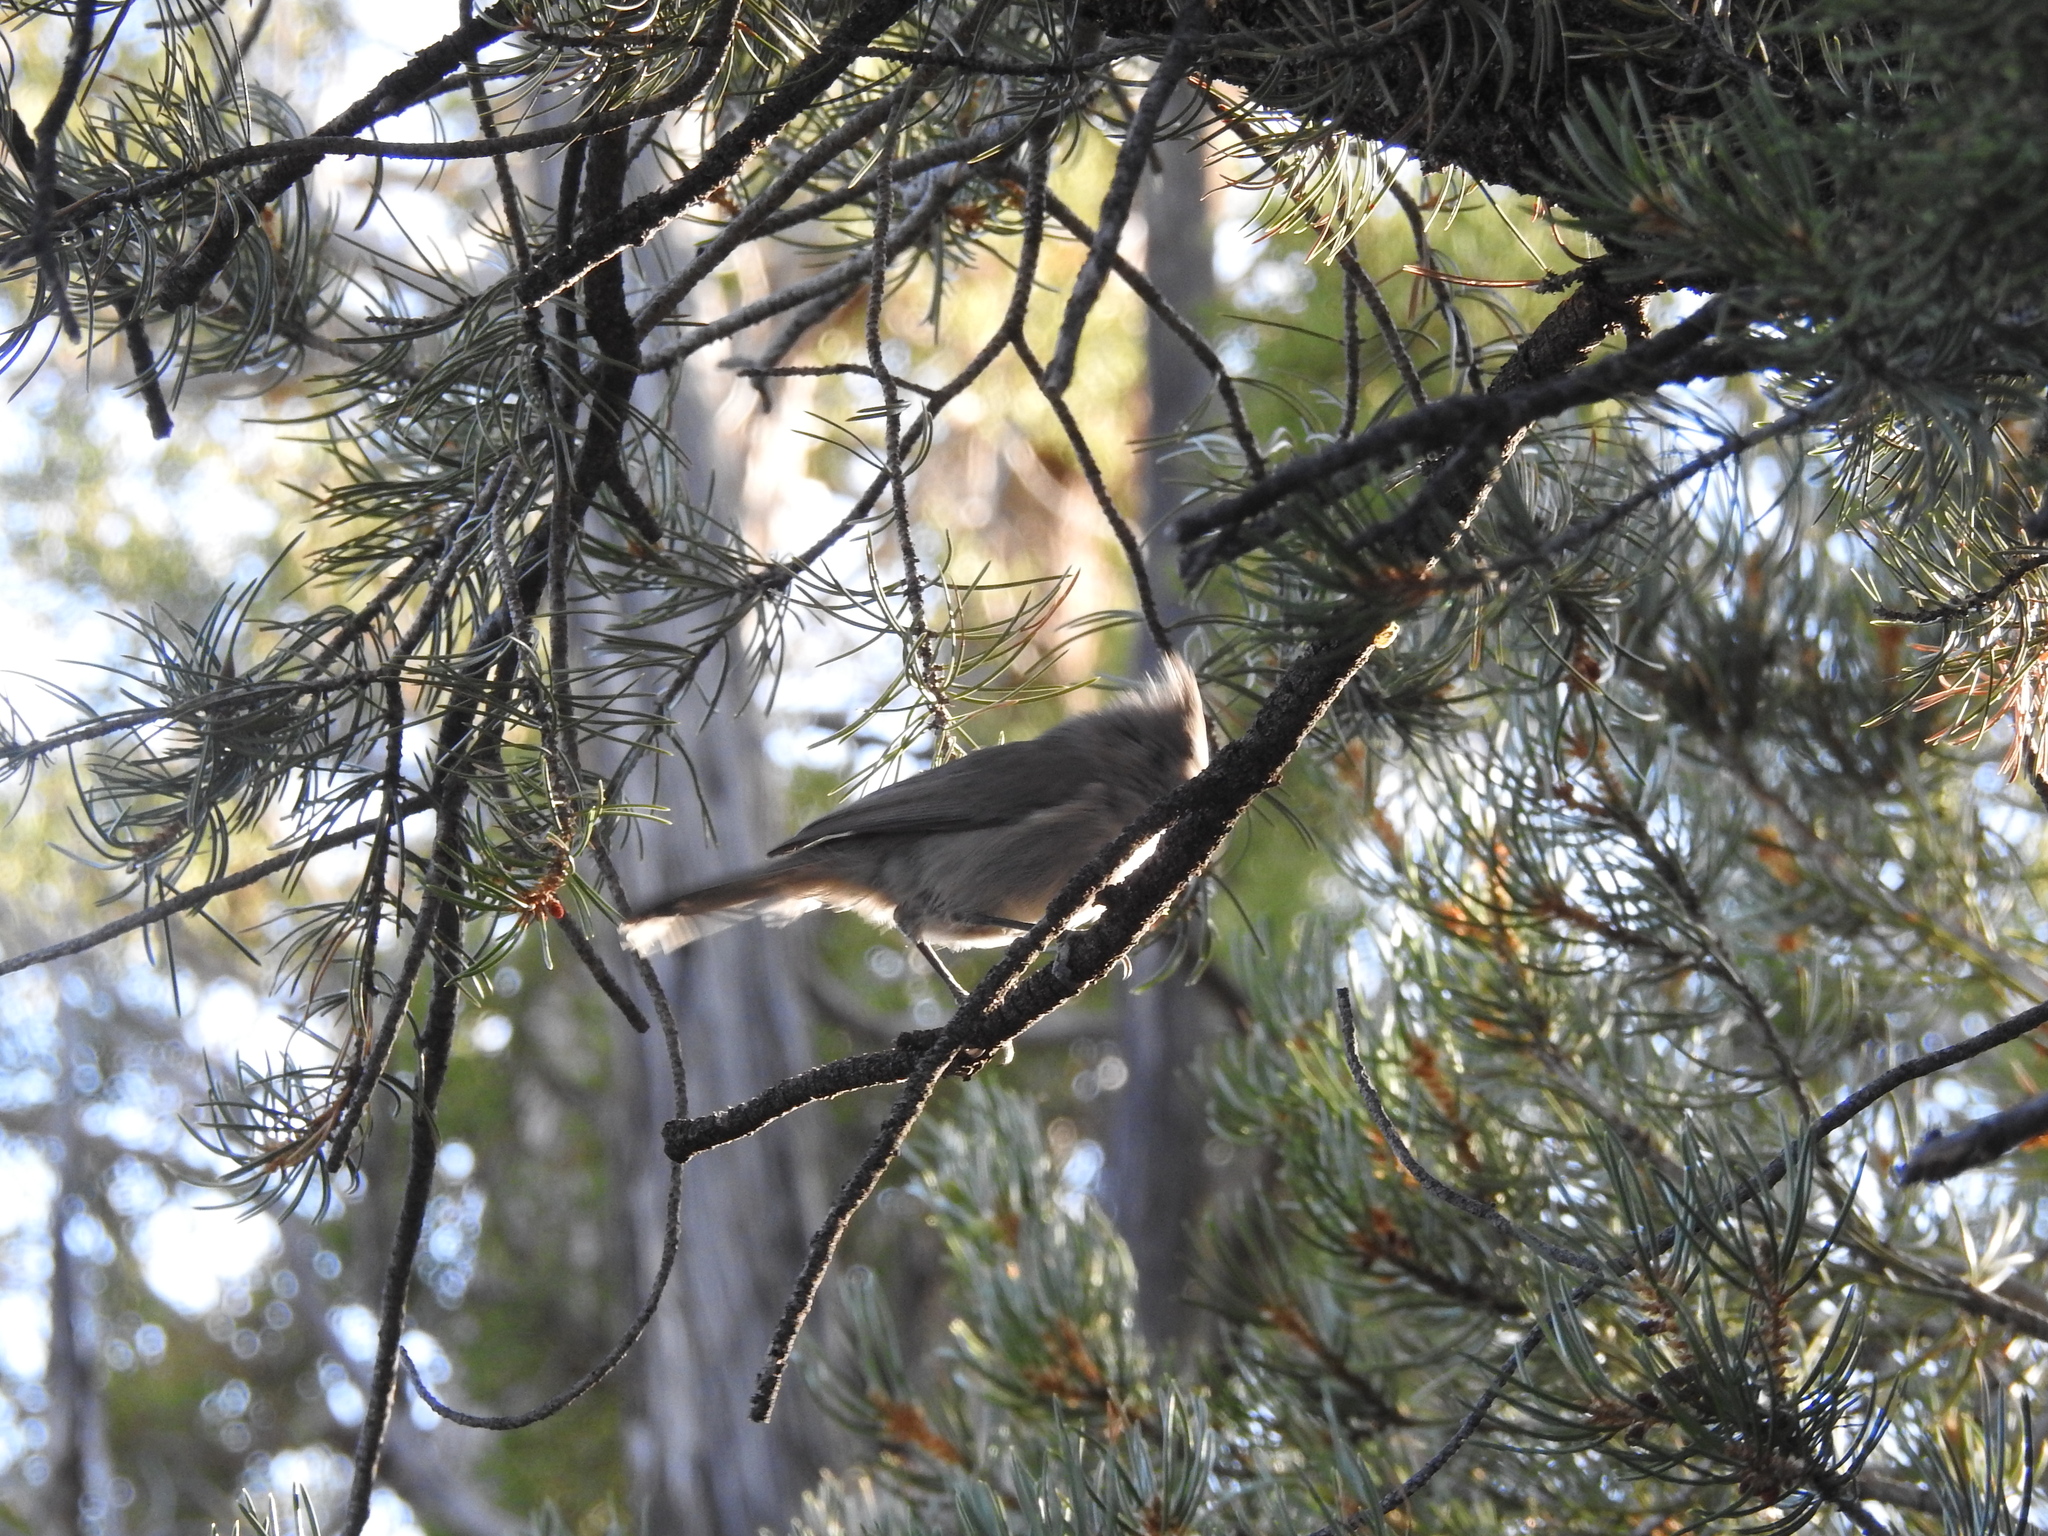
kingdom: Animalia
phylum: Chordata
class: Aves
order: Passeriformes
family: Paridae
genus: Baeolophus
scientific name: Baeolophus ridgwayi
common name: Juniper titmouse
